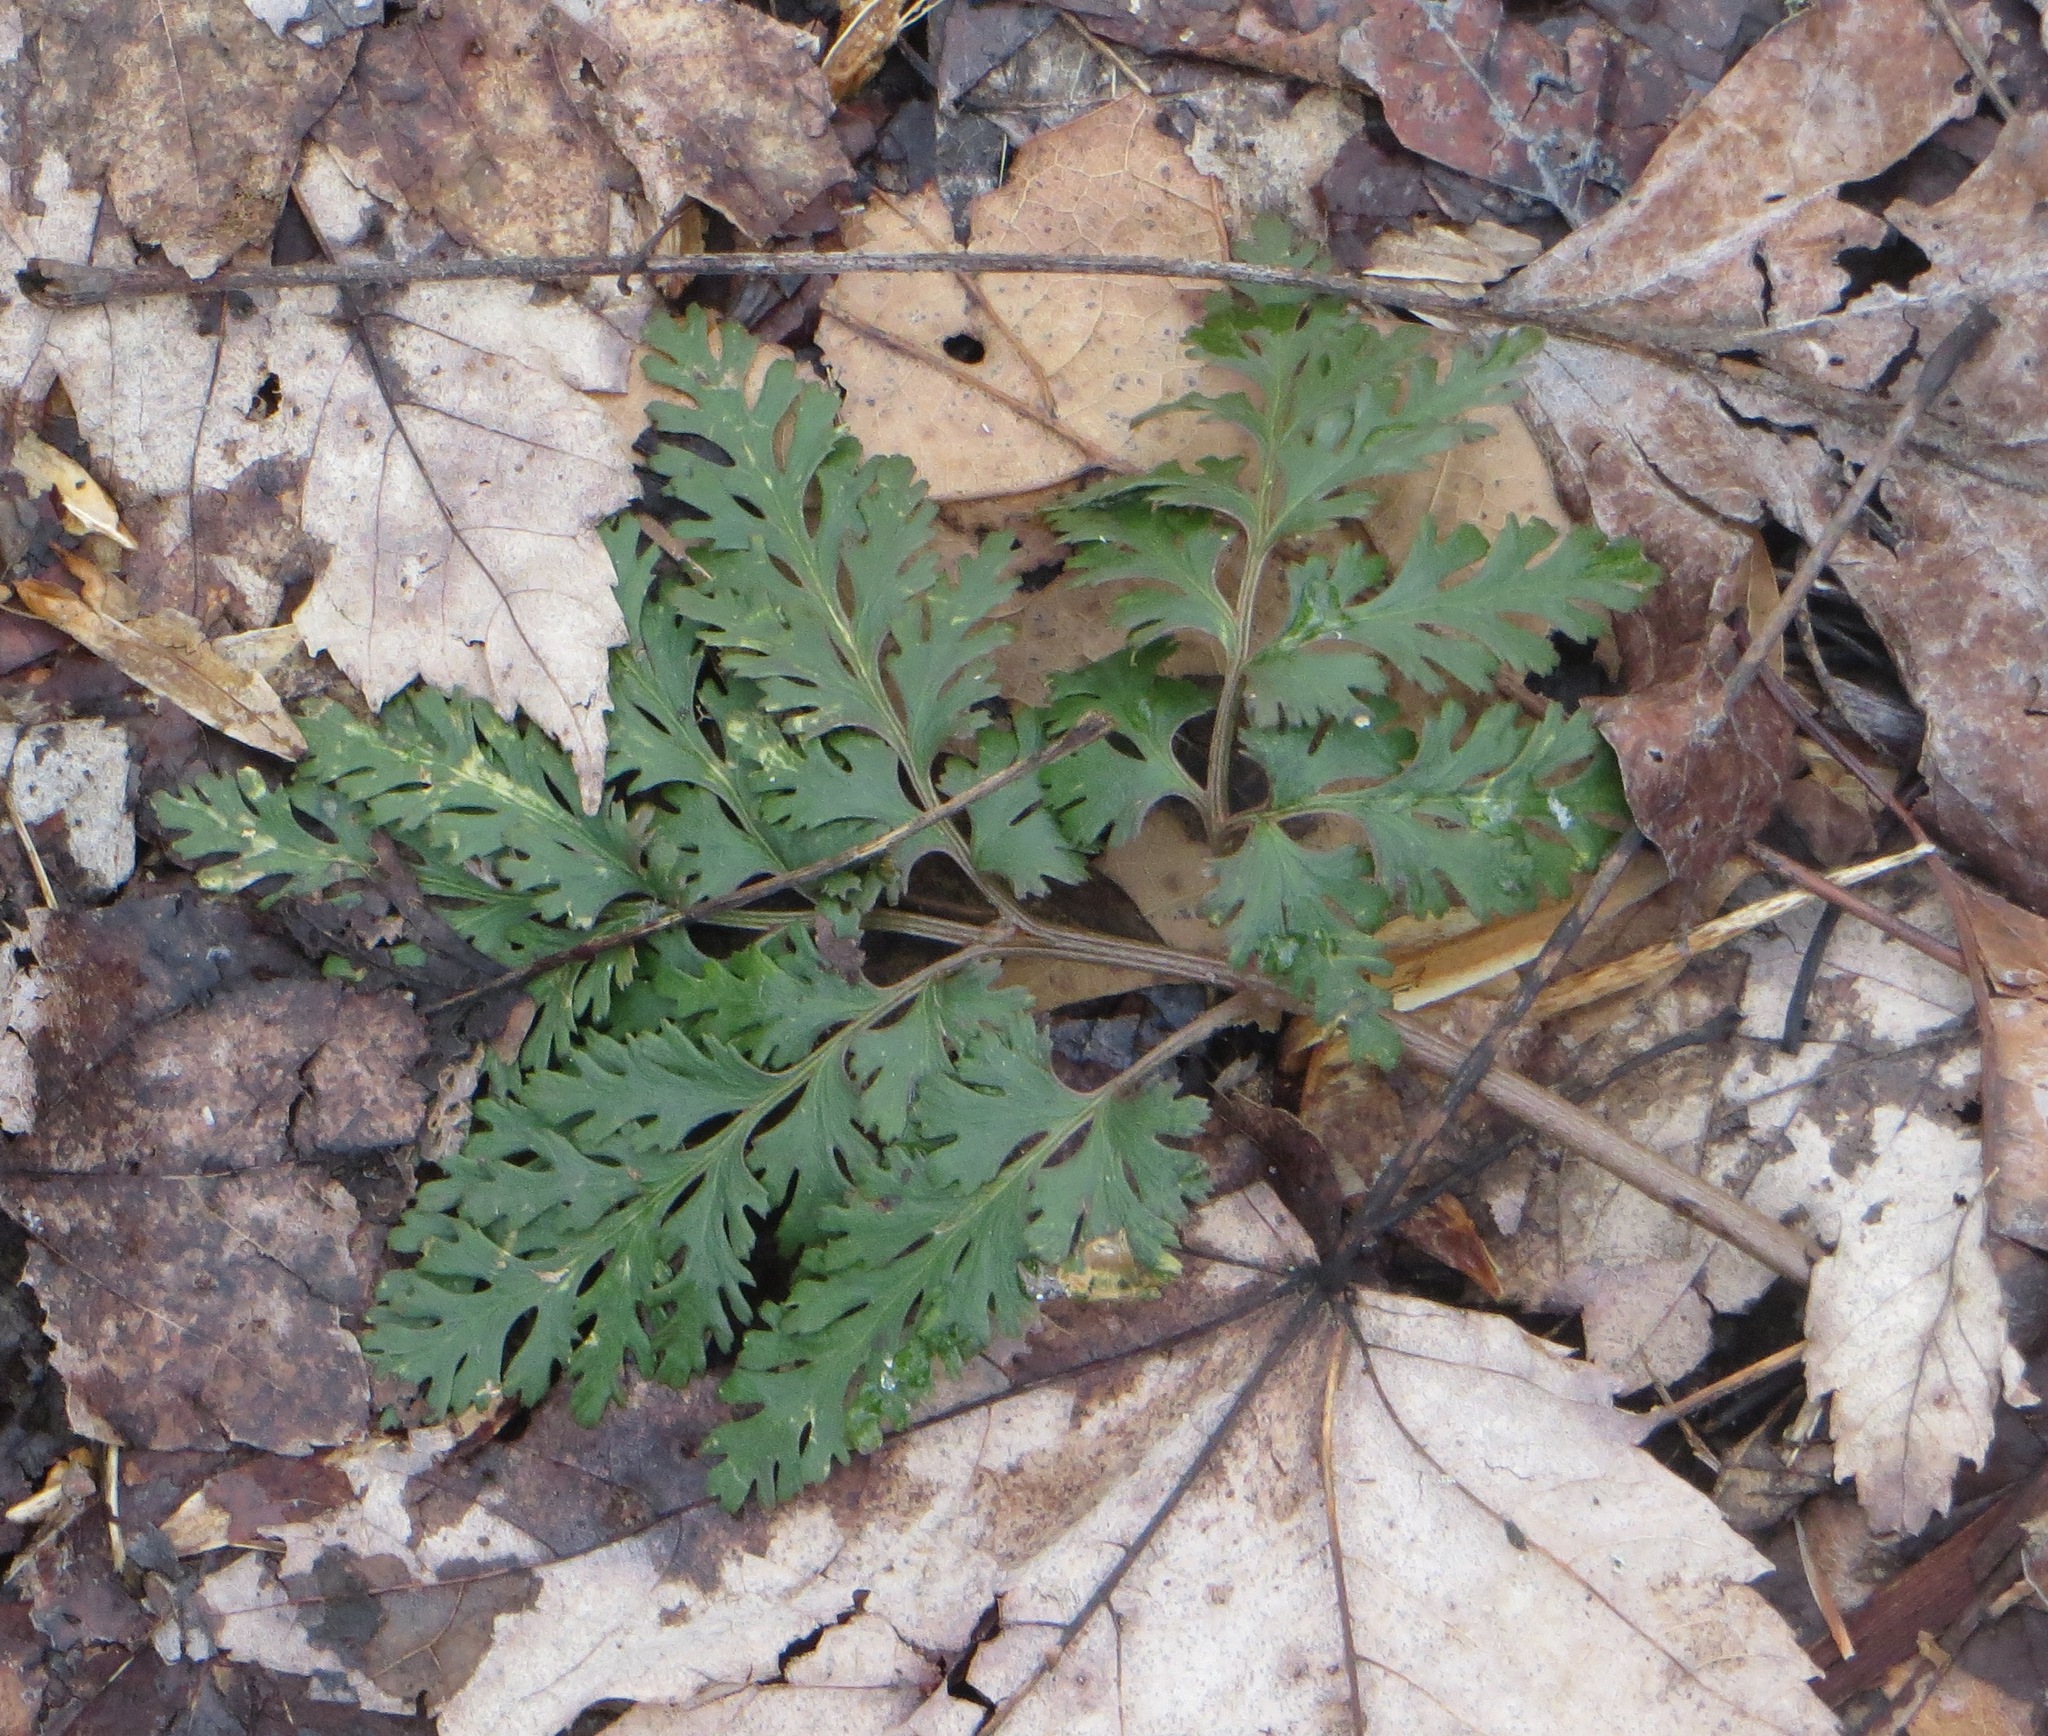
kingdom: Plantae
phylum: Tracheophyta
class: Polypodiopsida
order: Ophioglossales
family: Ophioglossaceae
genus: Sceptridium
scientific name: Sceptridium dissectum
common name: Cut-leaved grapefern
